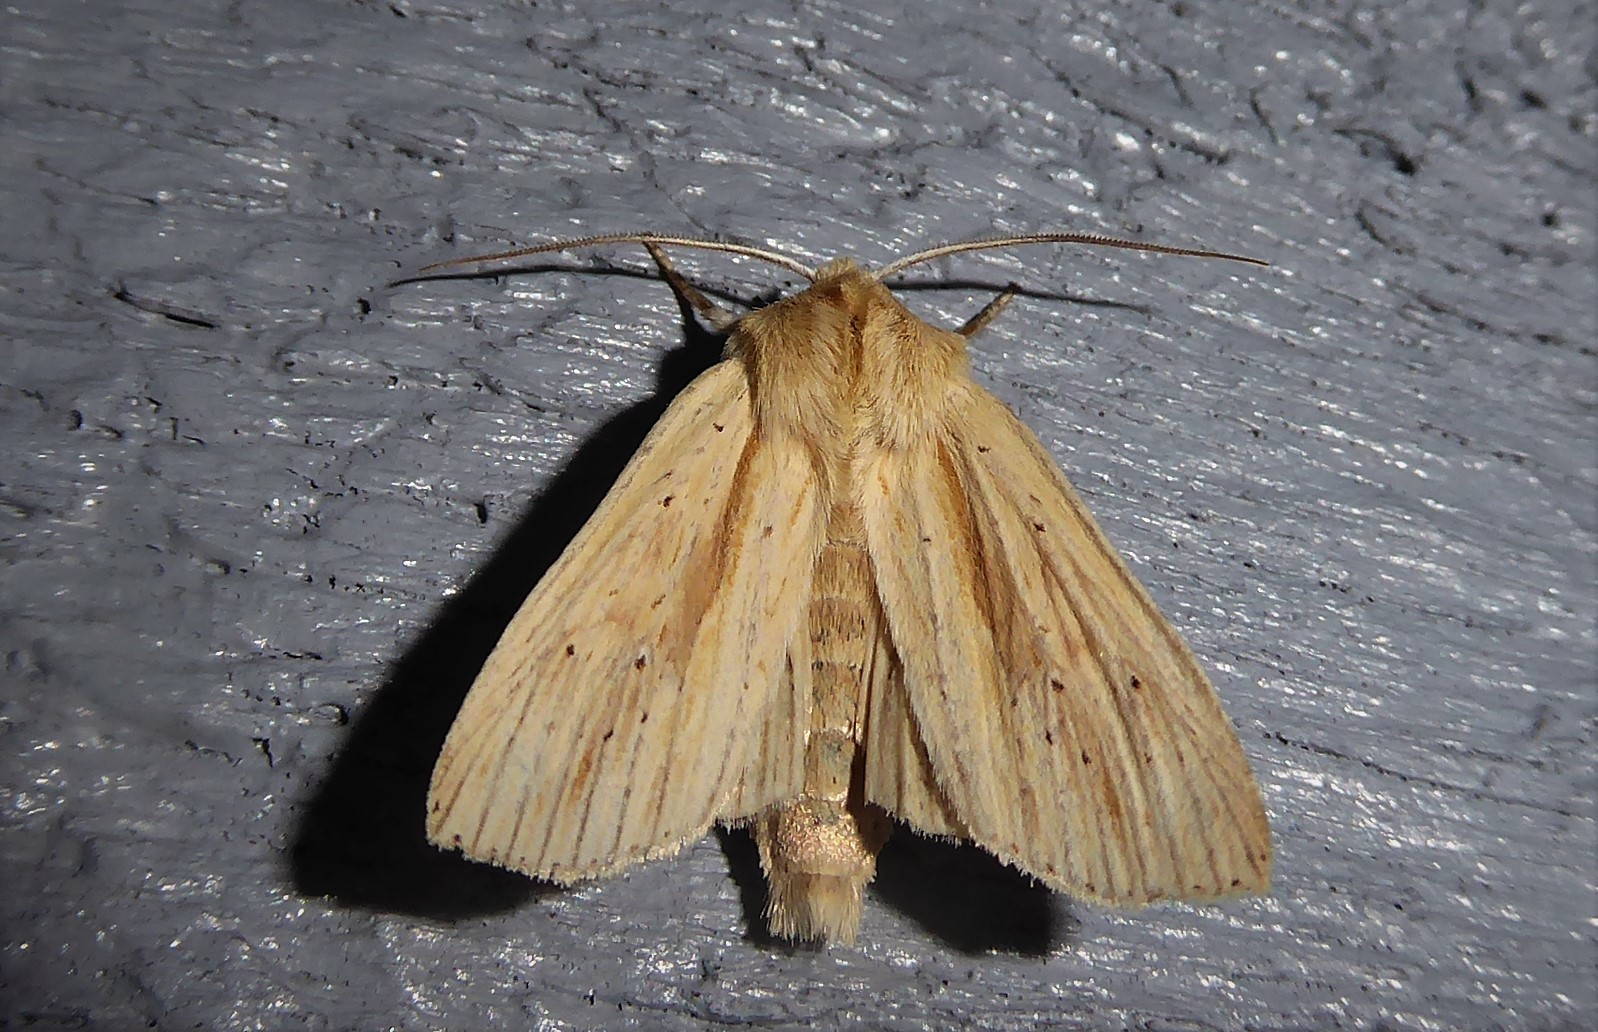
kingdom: Animalia
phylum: Arthropoda
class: Insecta
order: Lepidoptera
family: Noctuidae
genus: Ichneutica
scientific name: Ichneutica semivittata
